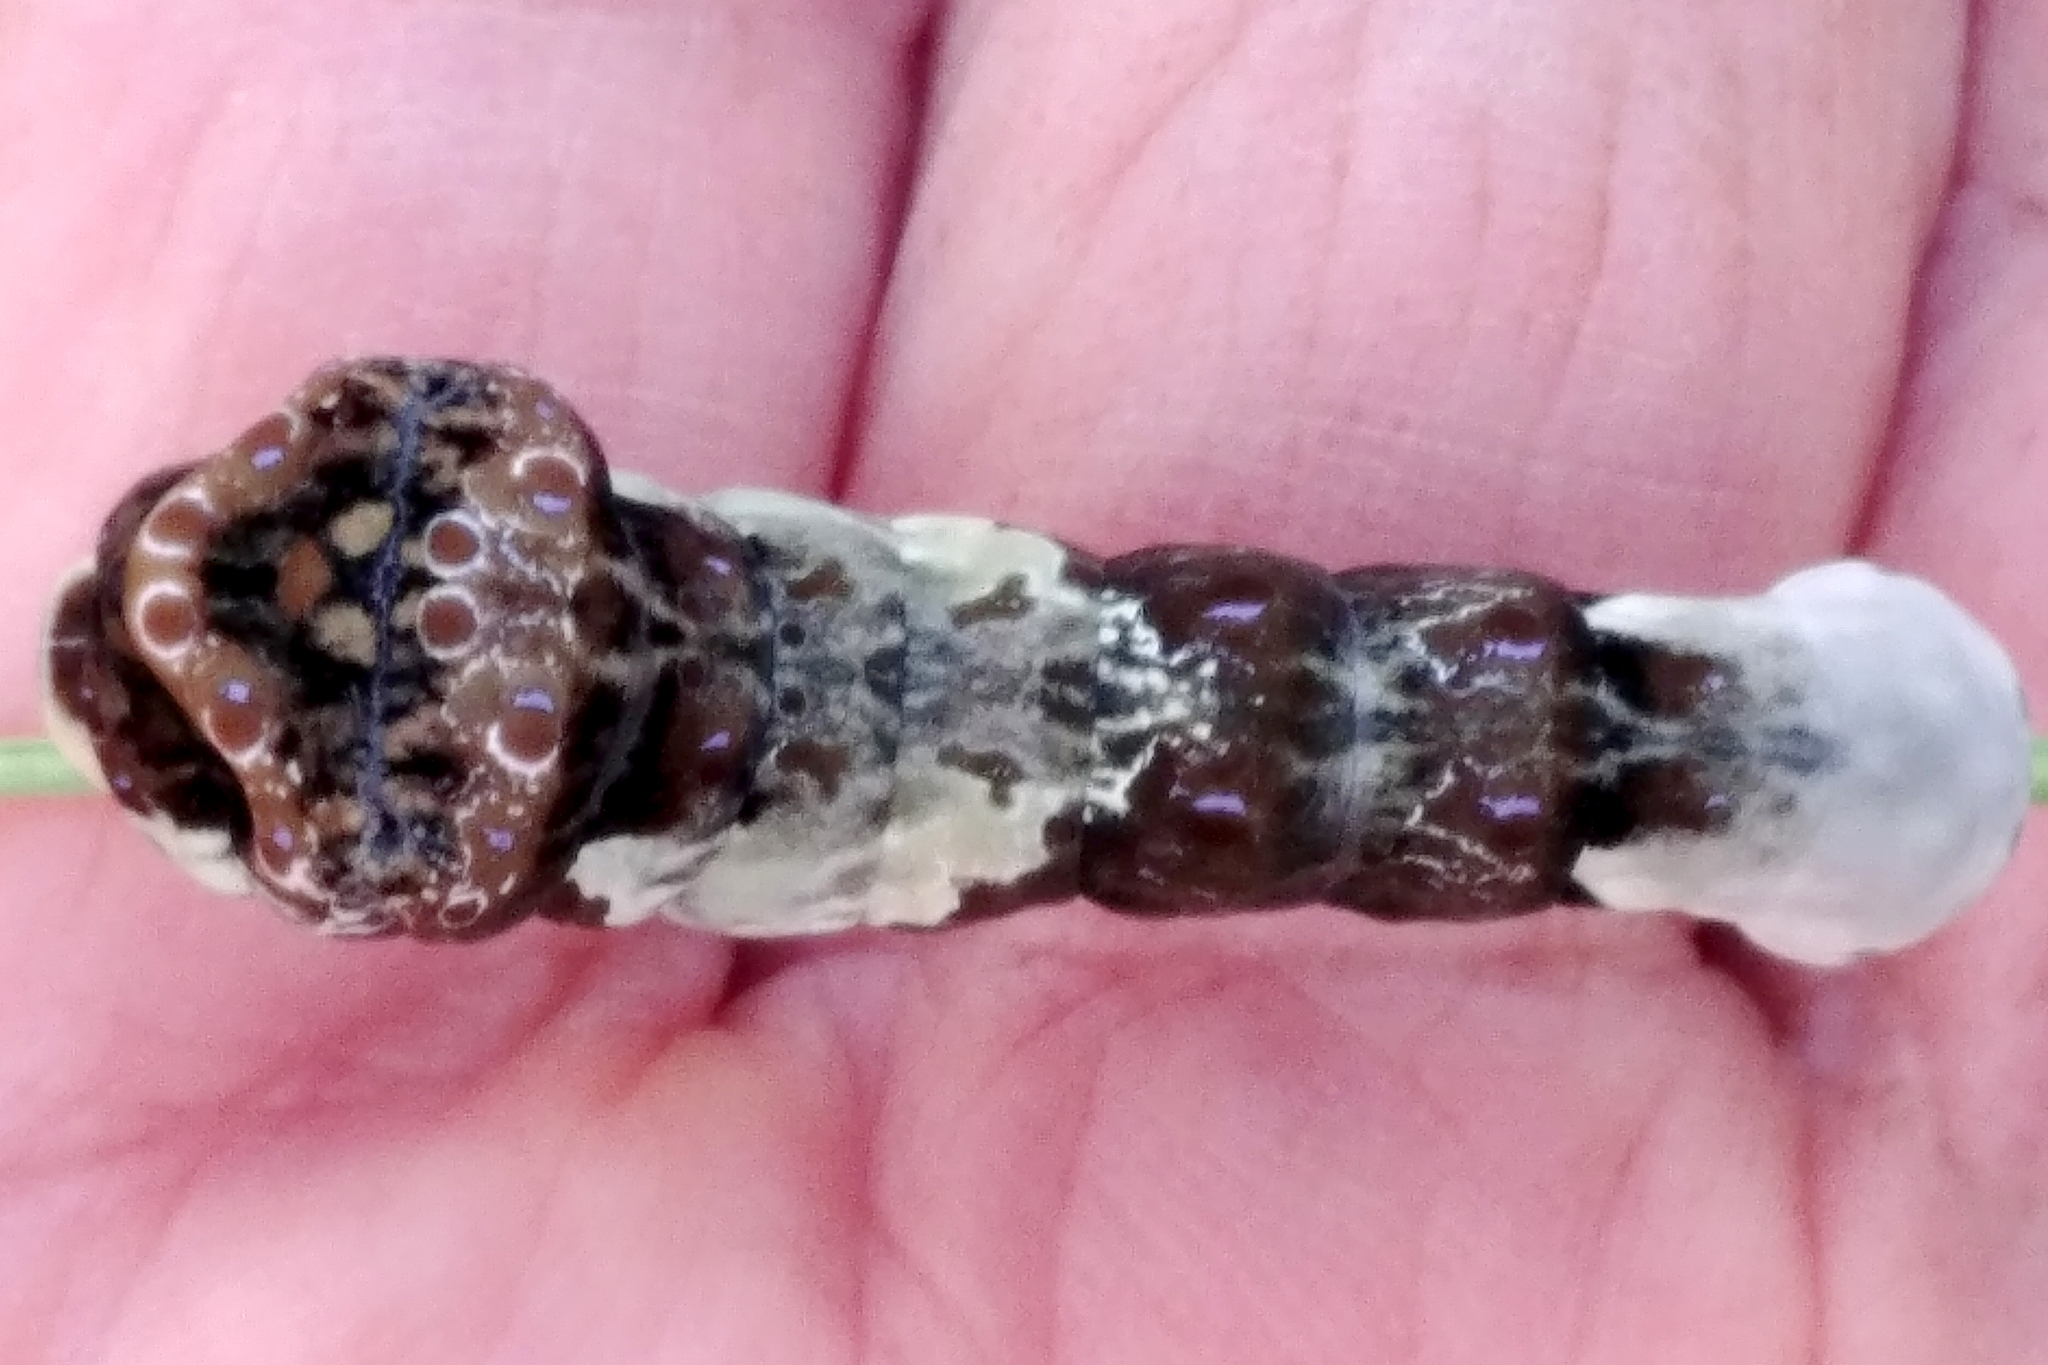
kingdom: Animalia
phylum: Arthropoda
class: Insecta
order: Lepidoptera
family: Papilionidae
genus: Papilio
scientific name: Papilio cresphontes
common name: Giant swallowtail
